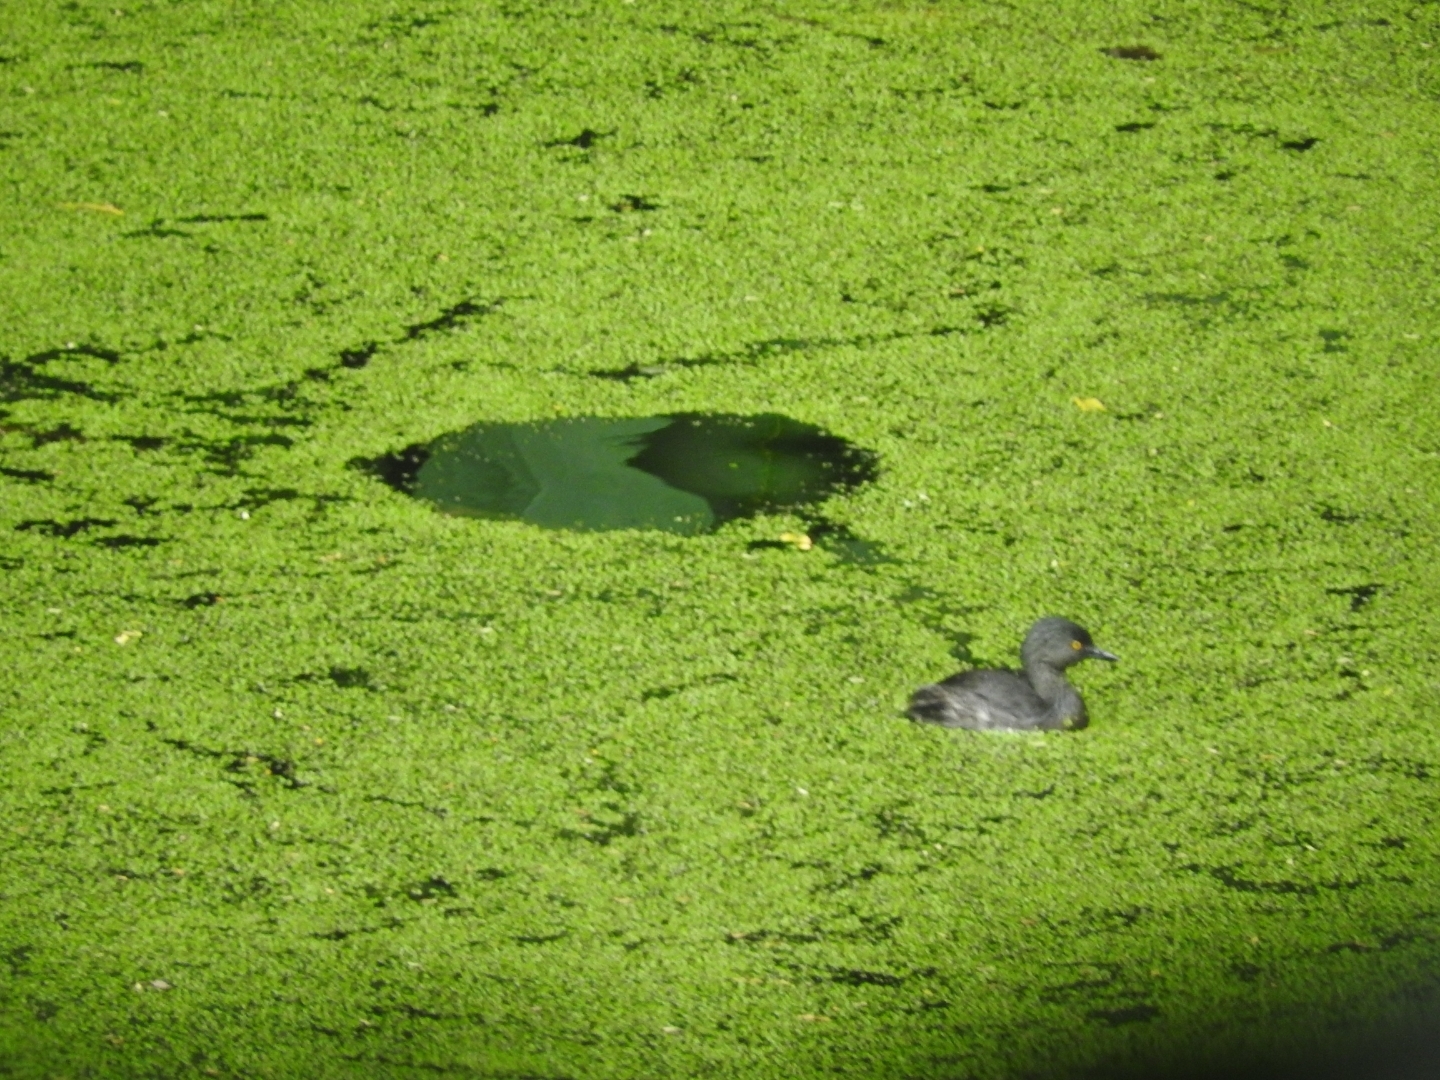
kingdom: Animalia
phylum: Chordata
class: Aves
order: Podicipediformes
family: Podicipedidae
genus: Tachybaptus
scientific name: Tachybaptus dominicus
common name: Least grebe
